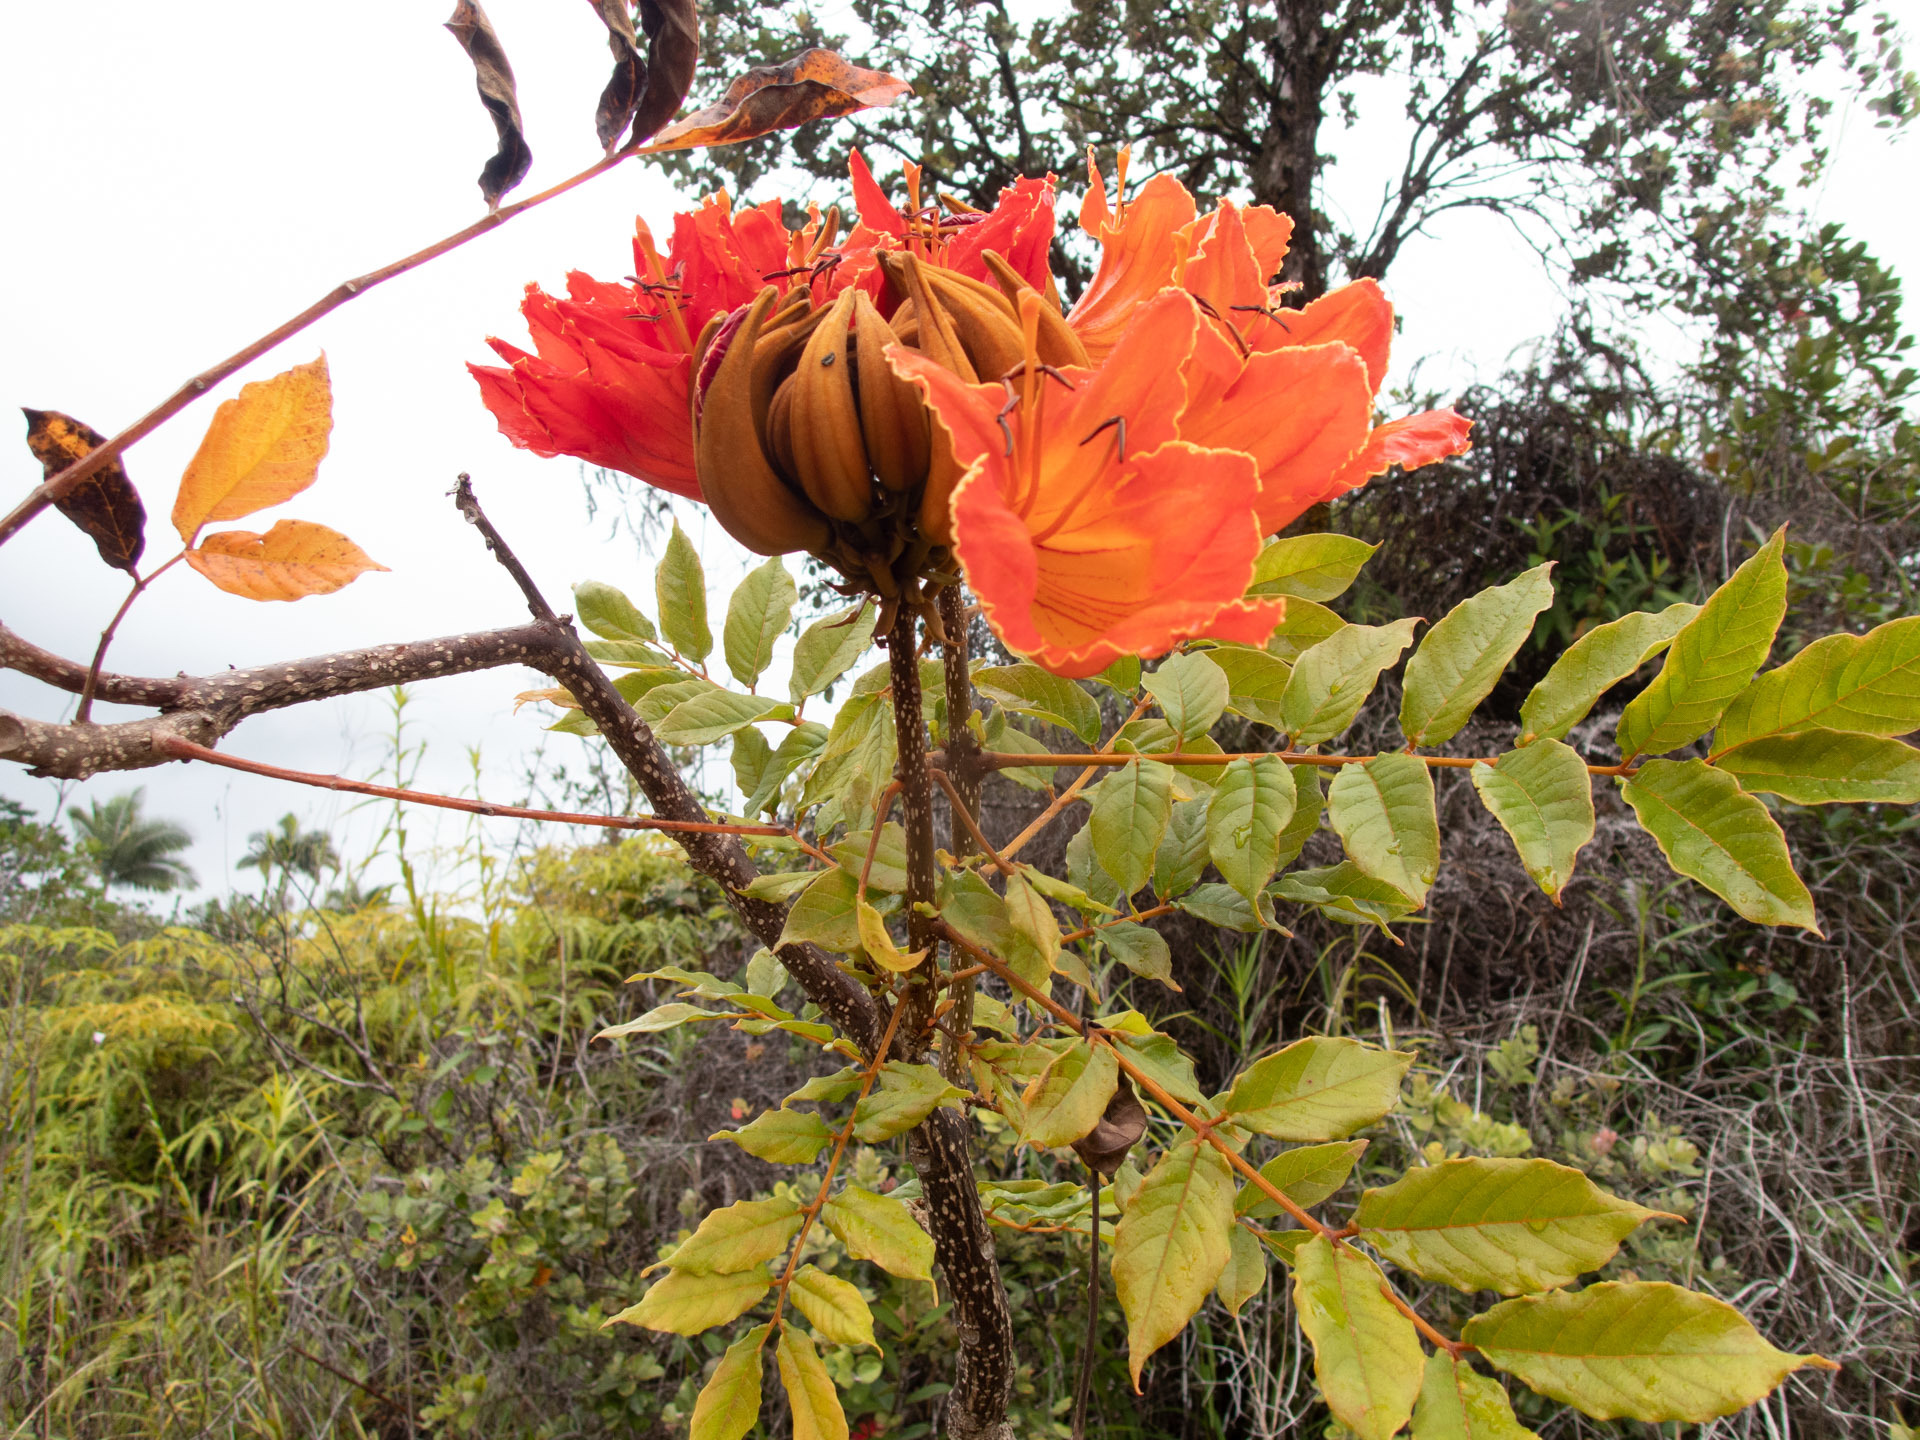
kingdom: Plantae
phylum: Tracheophyta
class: Magnoliopsida
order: Lamiales
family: Bignoniaceae
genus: Spathodea
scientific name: Spathodea campanulata
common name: African tuliptree
